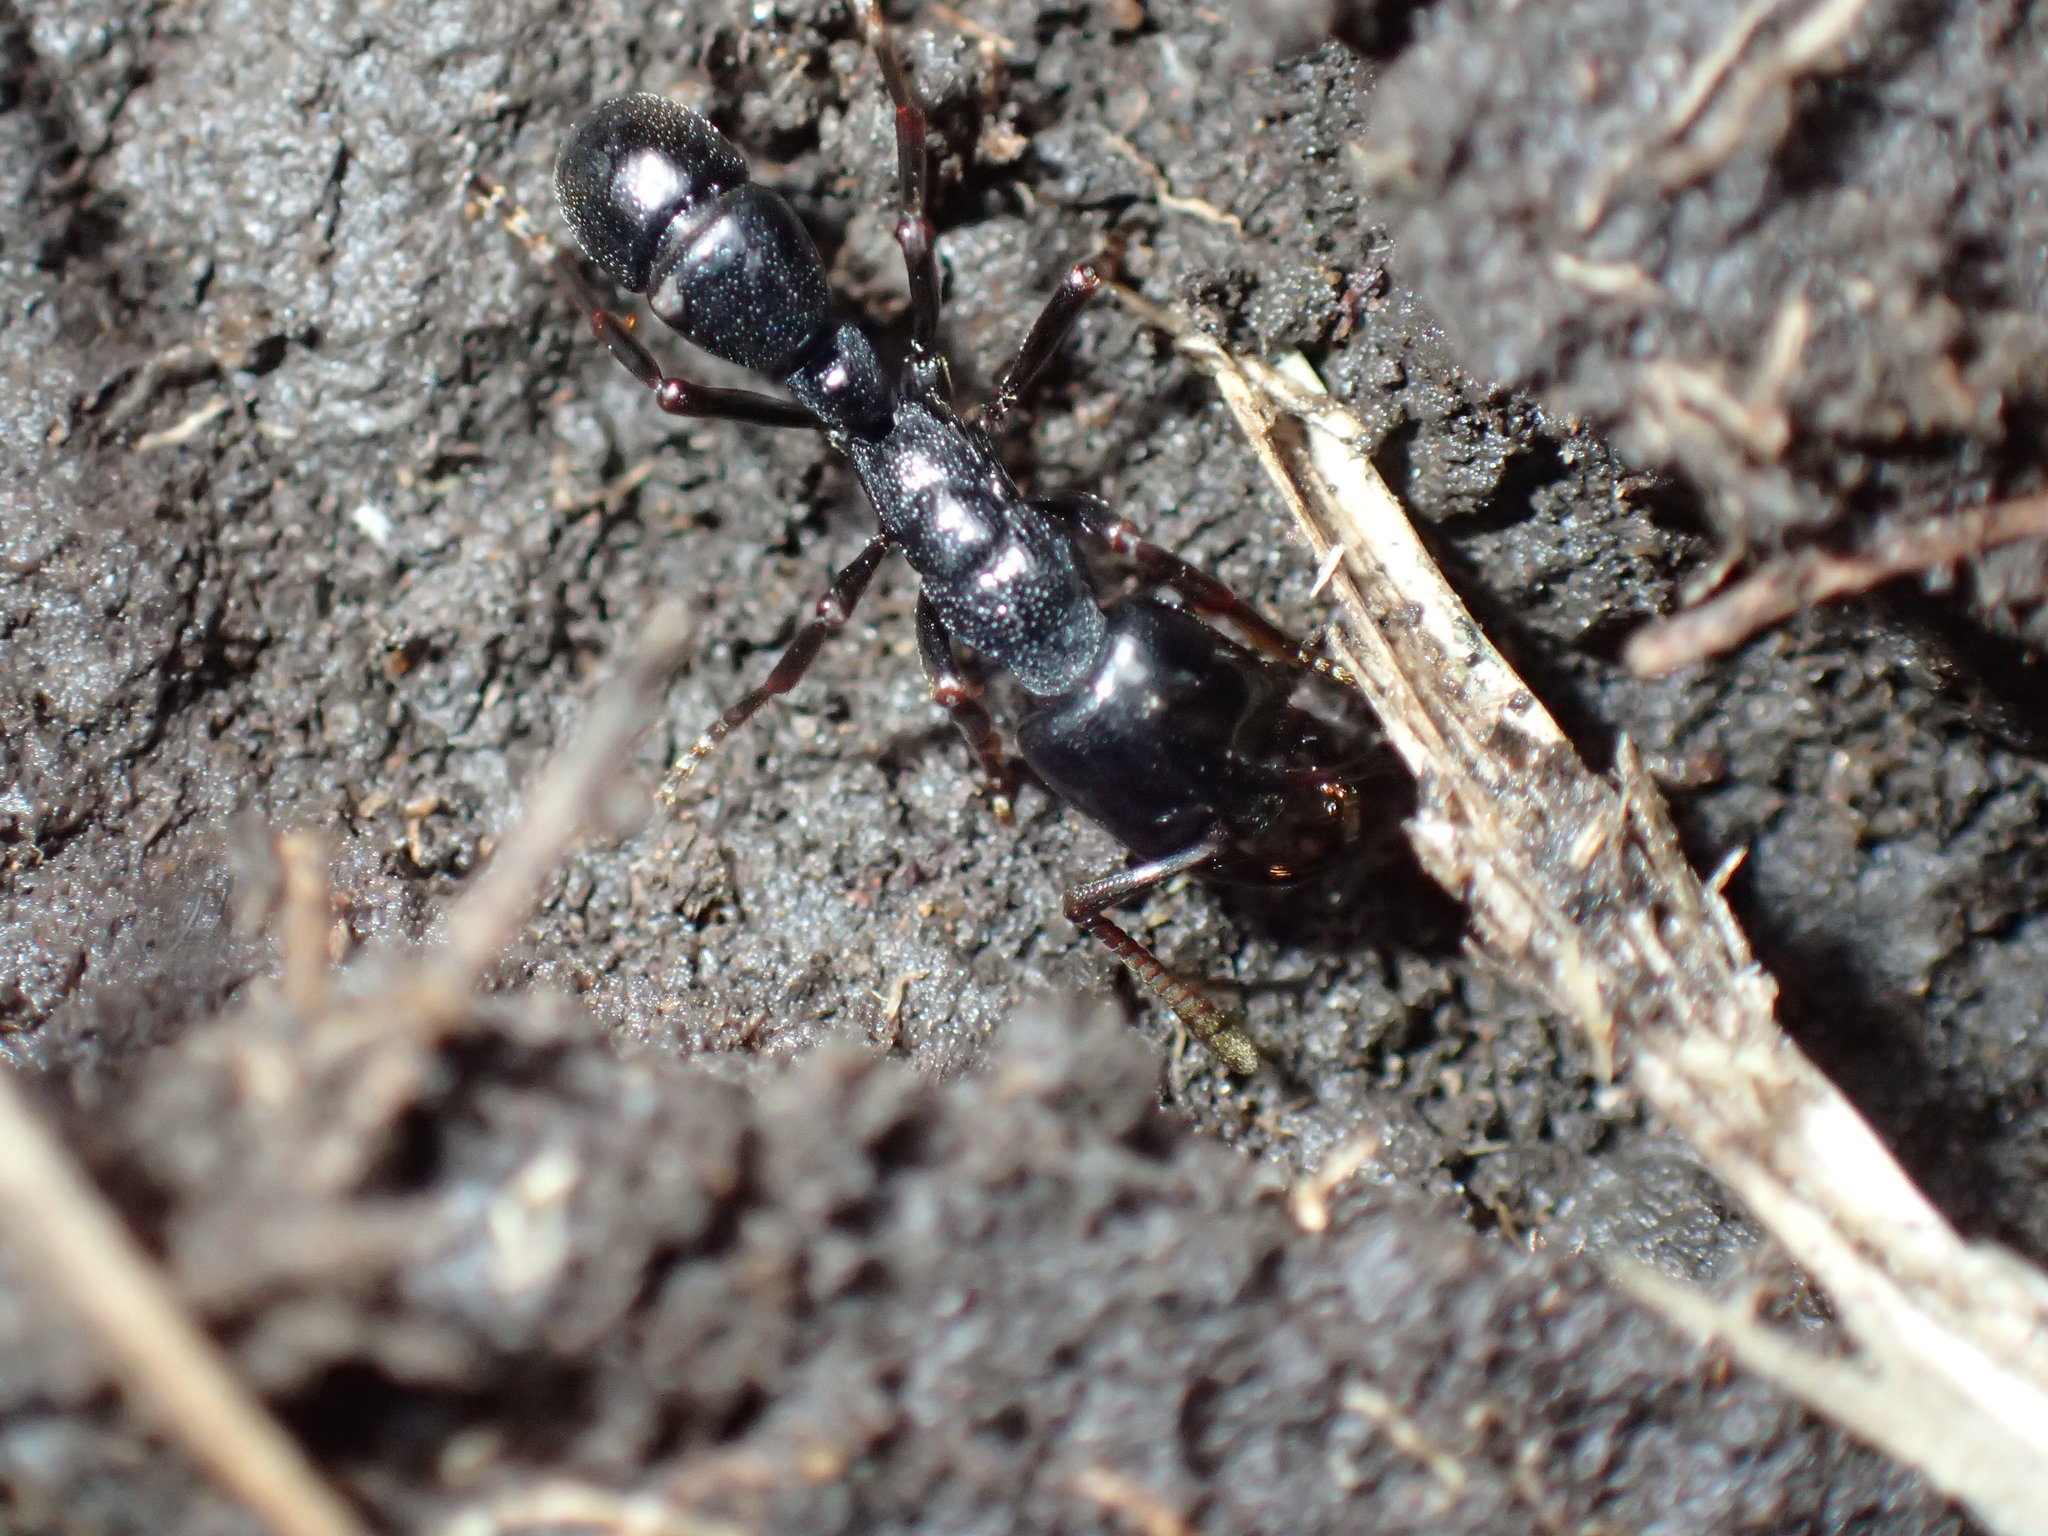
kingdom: Animalia
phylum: Arthropoda
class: Insecta
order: Hymenoptera
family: Formicidae
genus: Plectroctena
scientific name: Plectroctena strigosa
